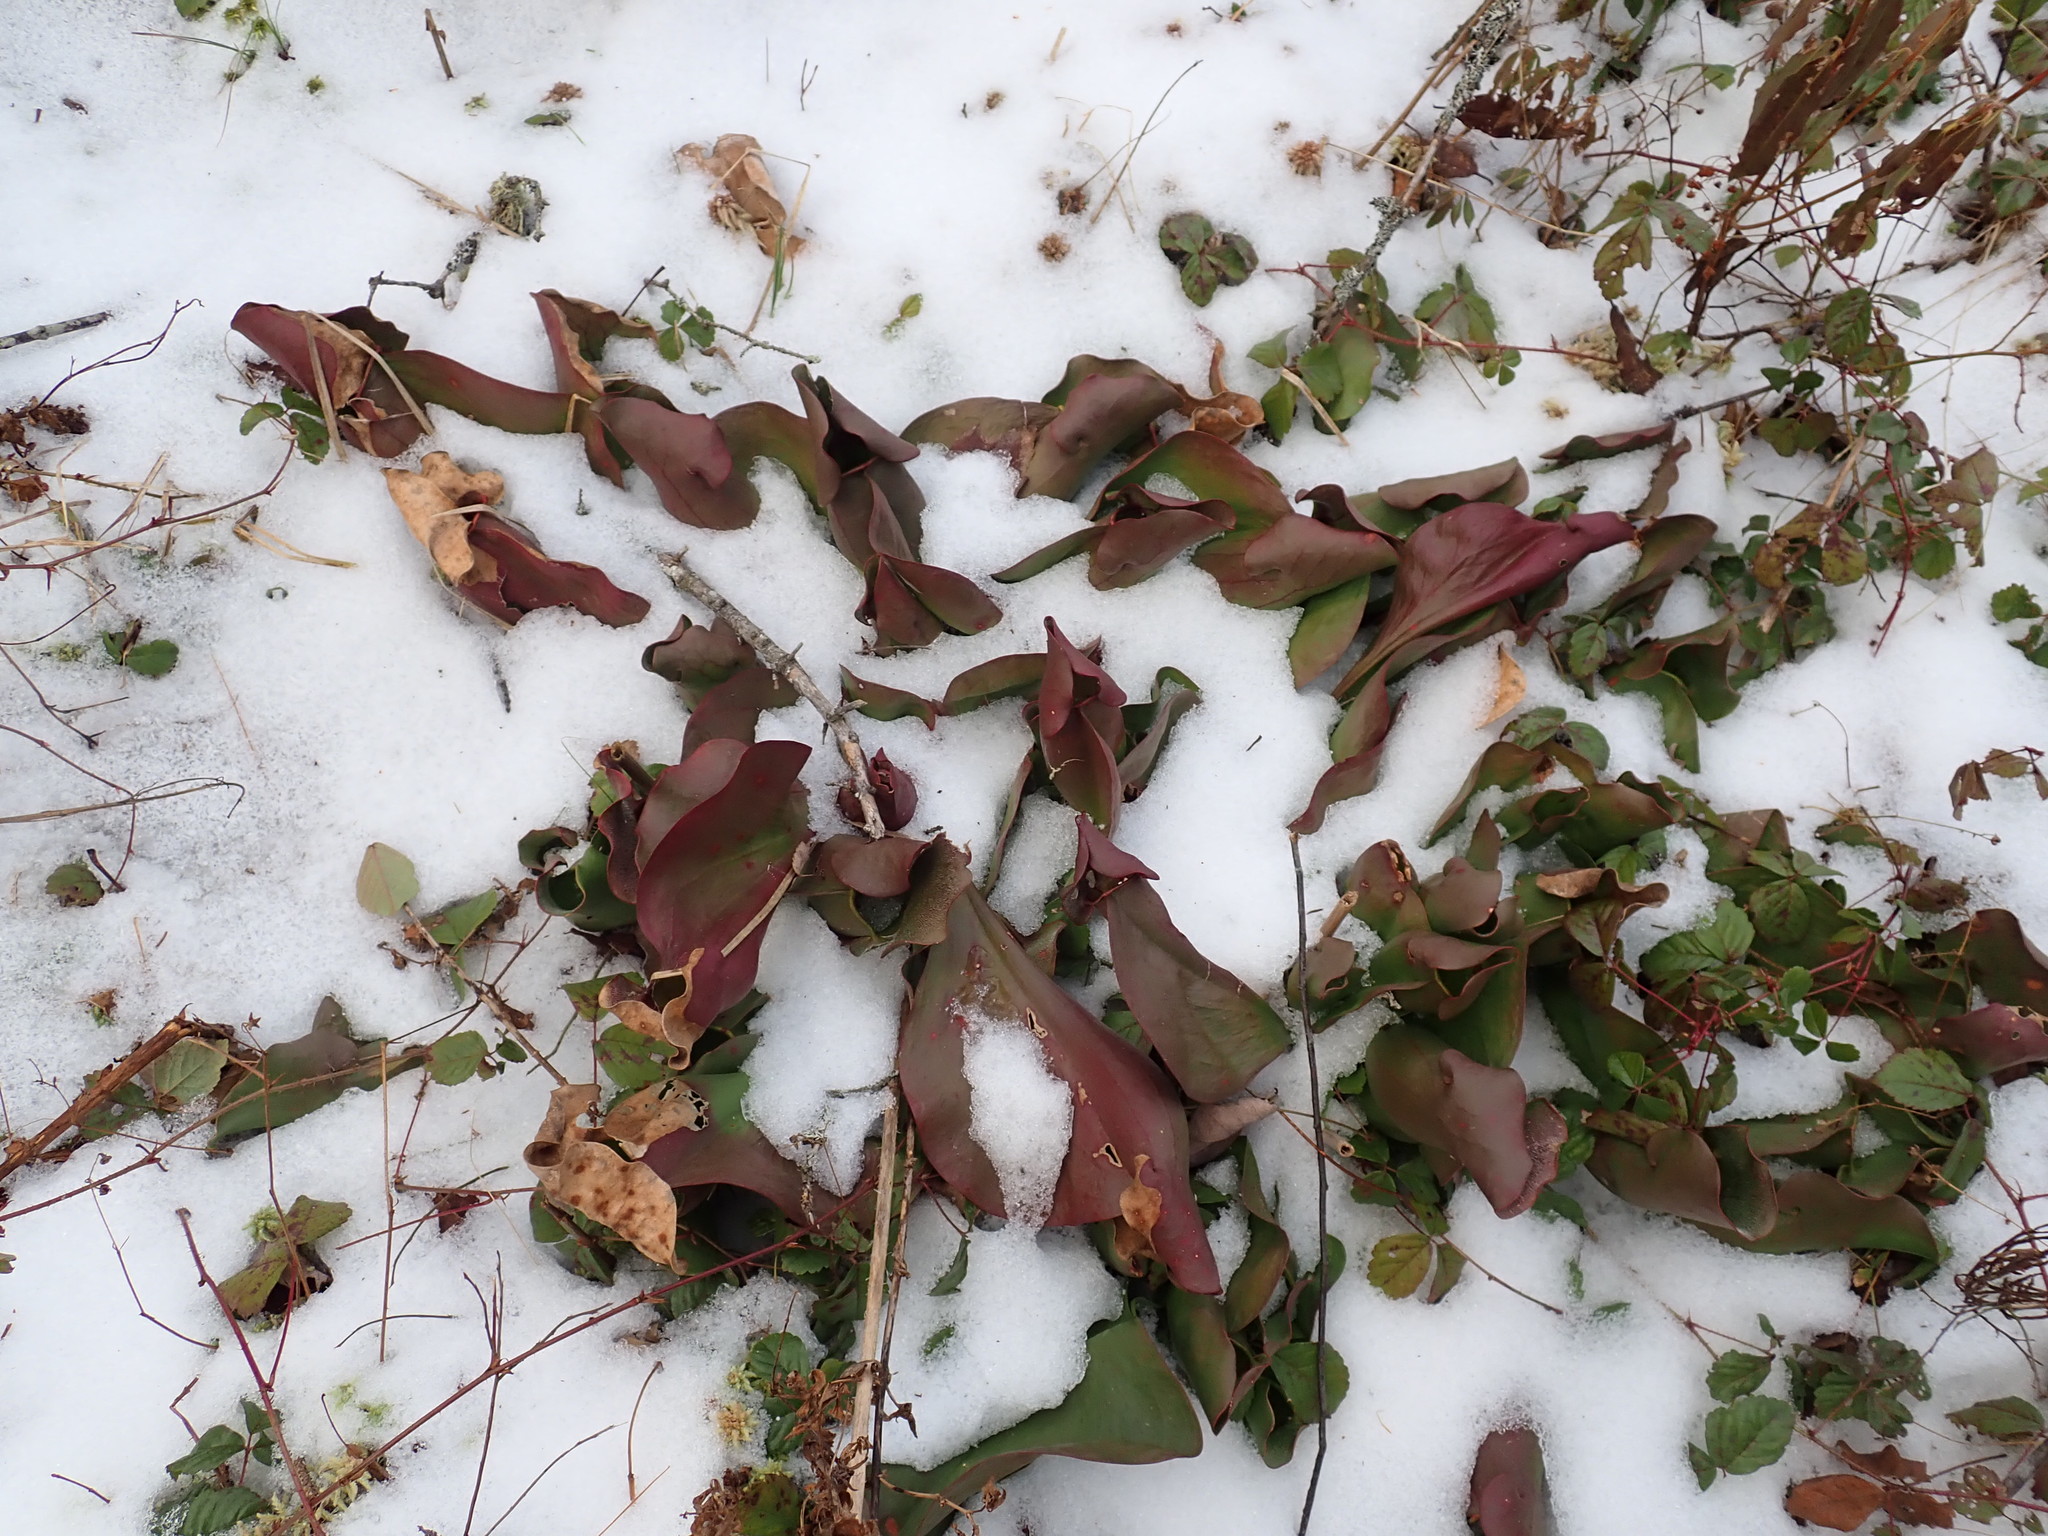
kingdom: Plantae
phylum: Tracheophyta
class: Magnoliopsida
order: Ericales
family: Sarraceniaceae
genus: Sarracenia
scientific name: Sarracenia purpurea
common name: Pitcherplant
